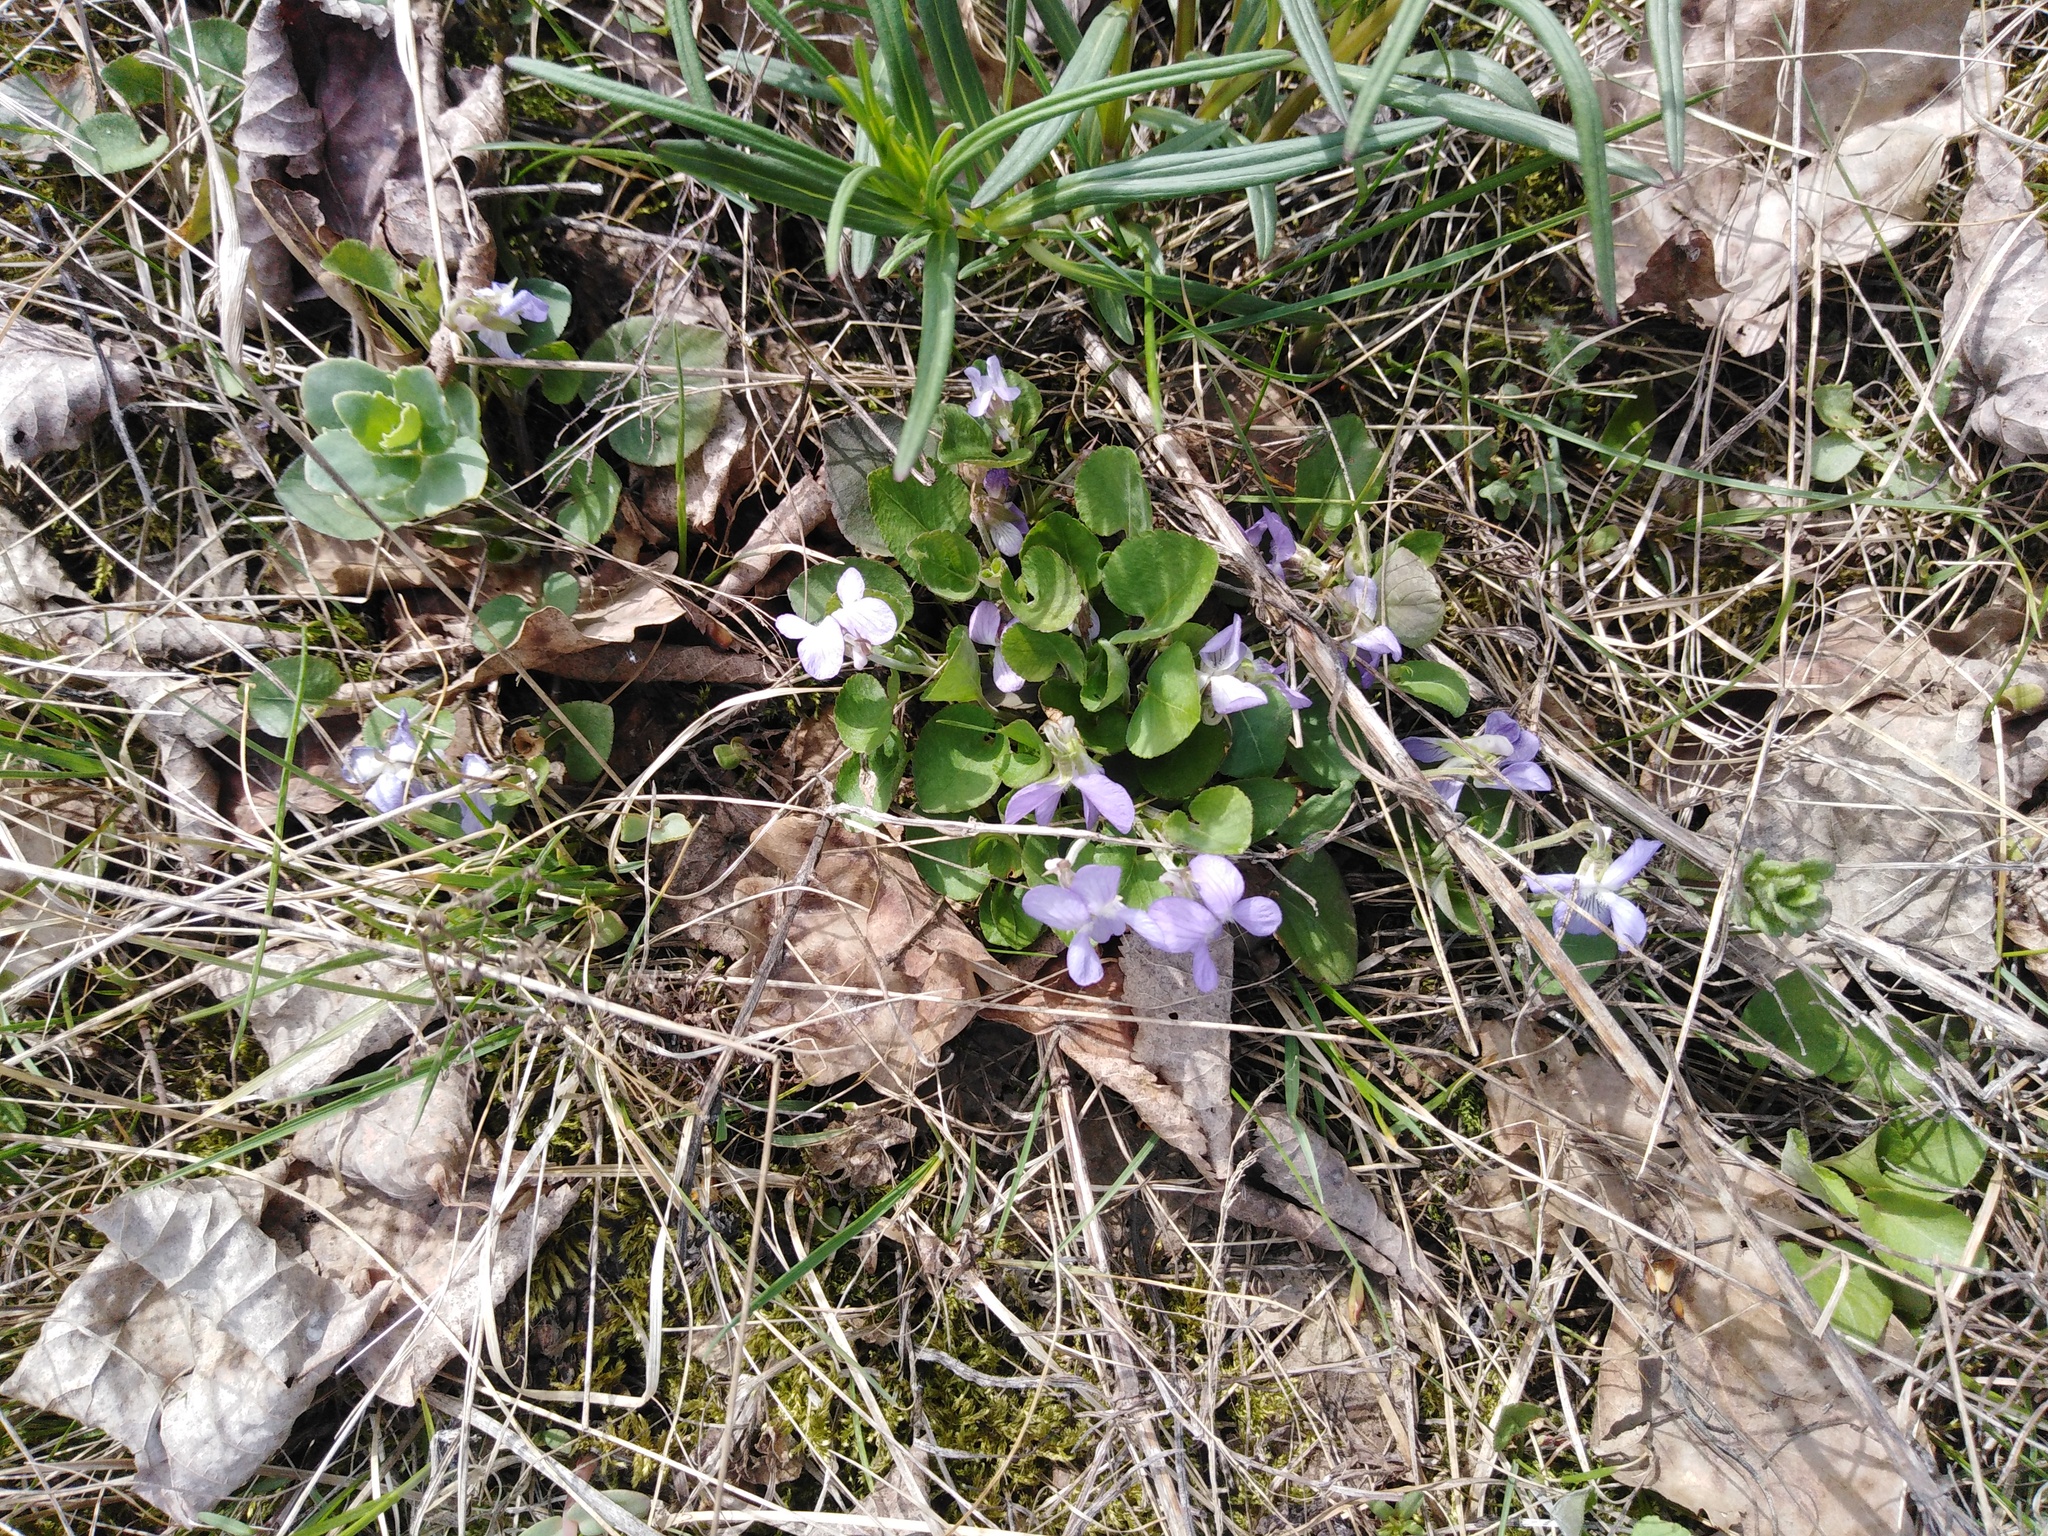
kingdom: Plantae
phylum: Tracheophyta
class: Magnoliopsida
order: Malpighiales
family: Violaceae
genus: Viola
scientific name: Viola rupestris
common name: Teesdale violet
